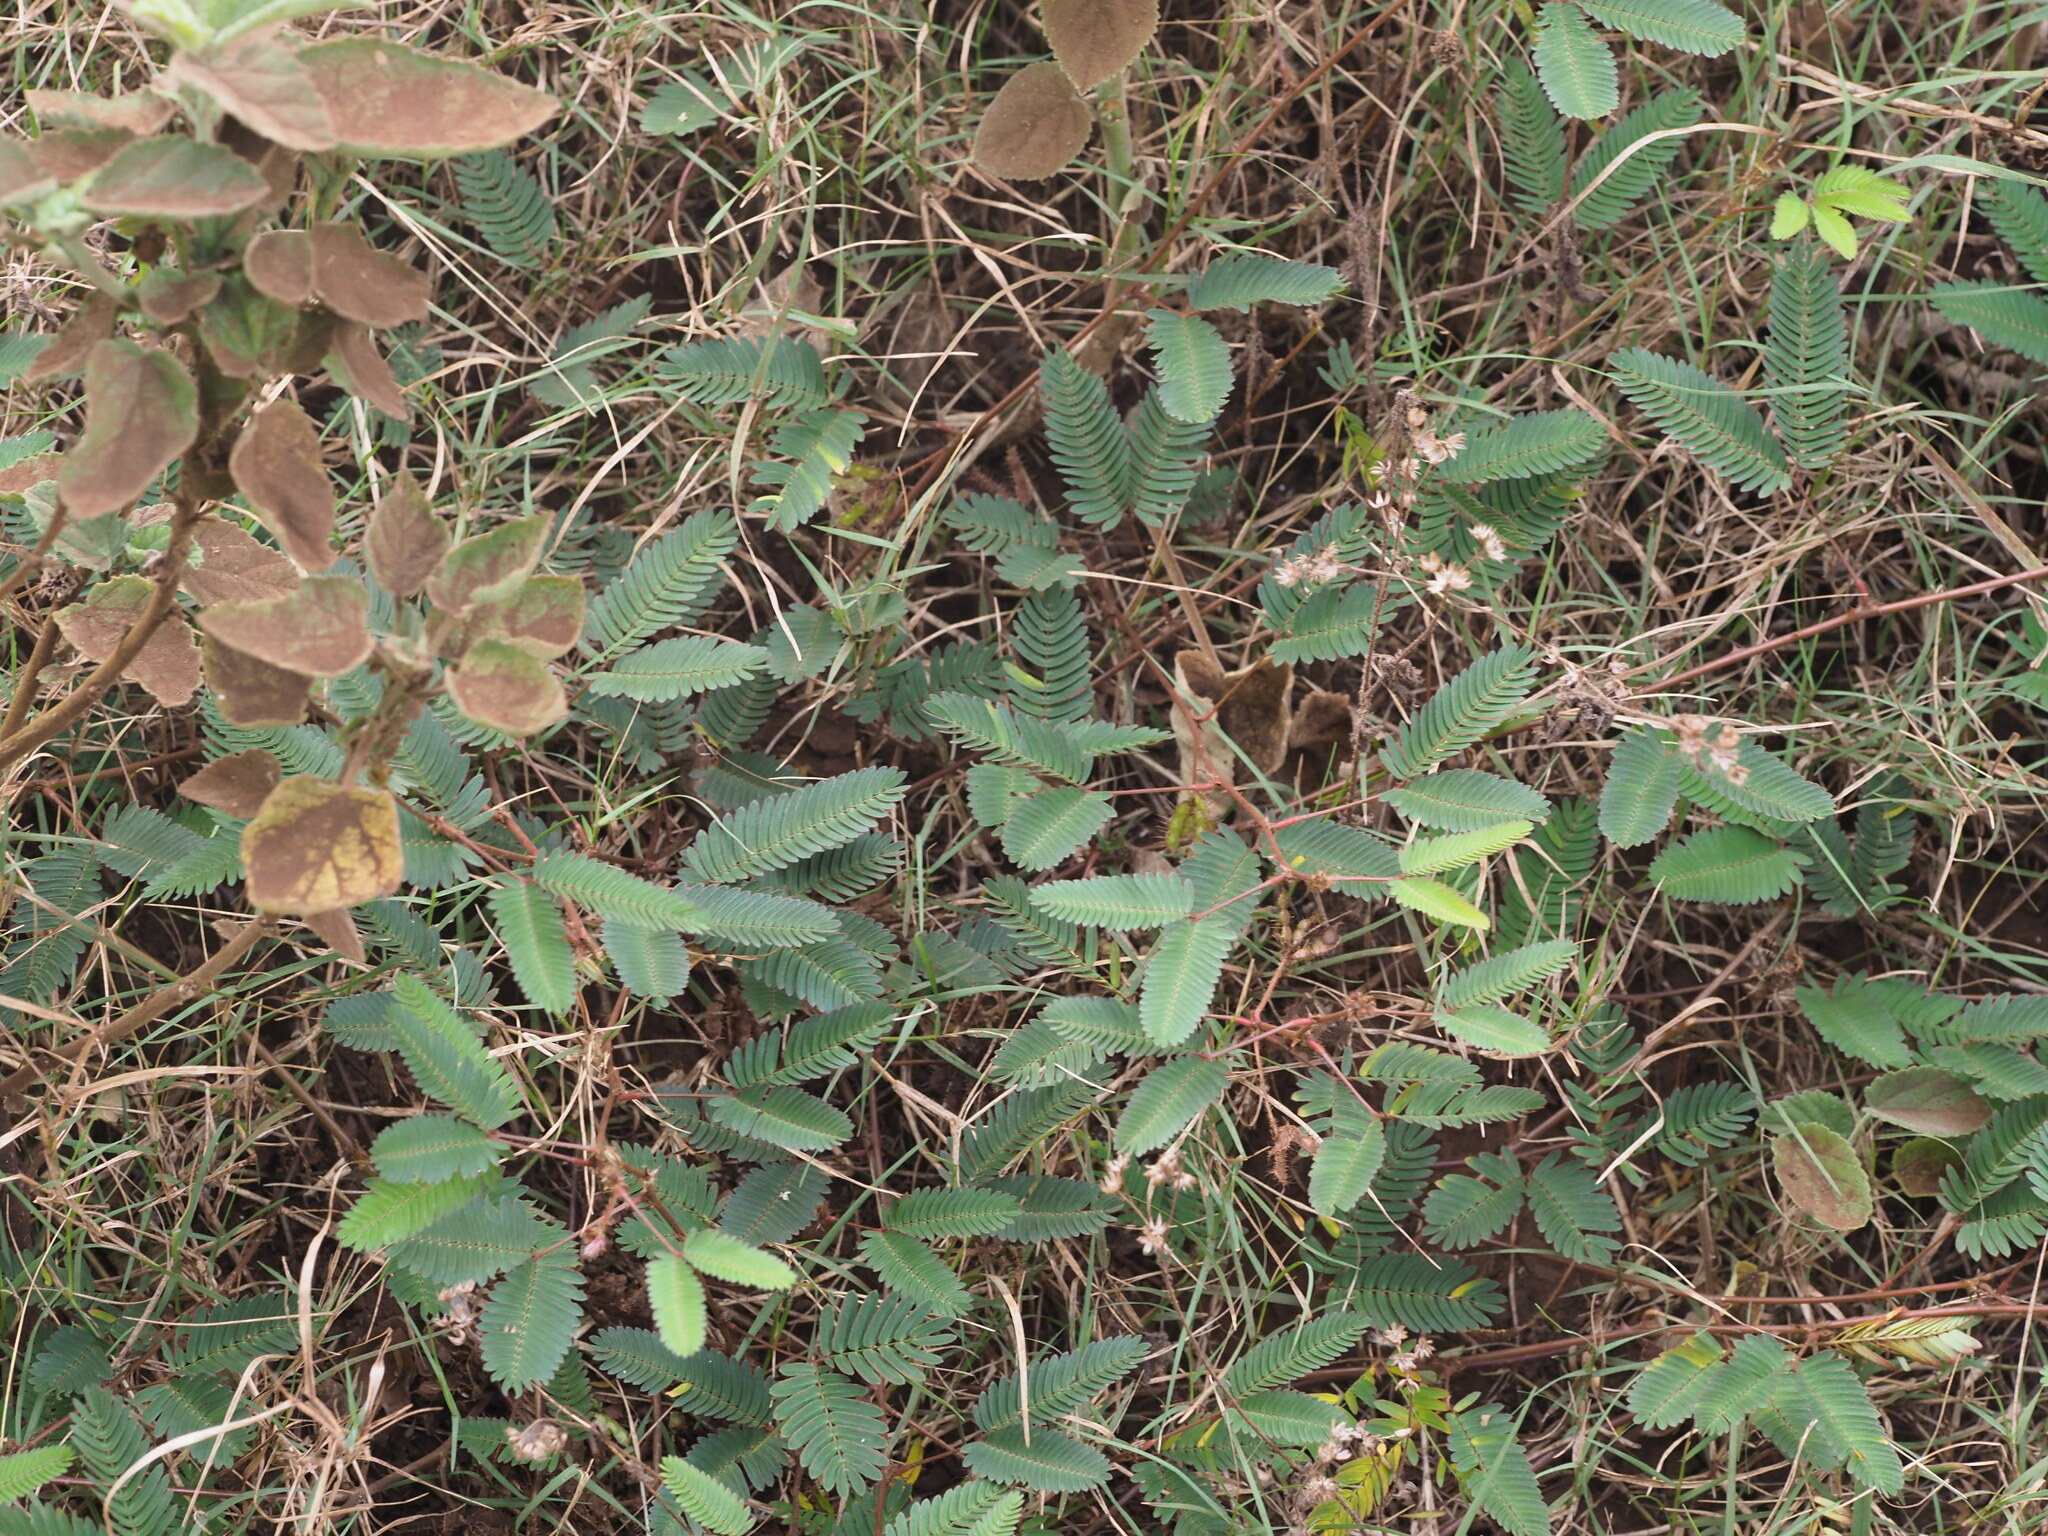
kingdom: Plantae
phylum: Tracheophyta
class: Magnoliopsida
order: Fabales
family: Fabaceae
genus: Mimosa
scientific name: Mimosa pudica
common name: Sensitive plant
